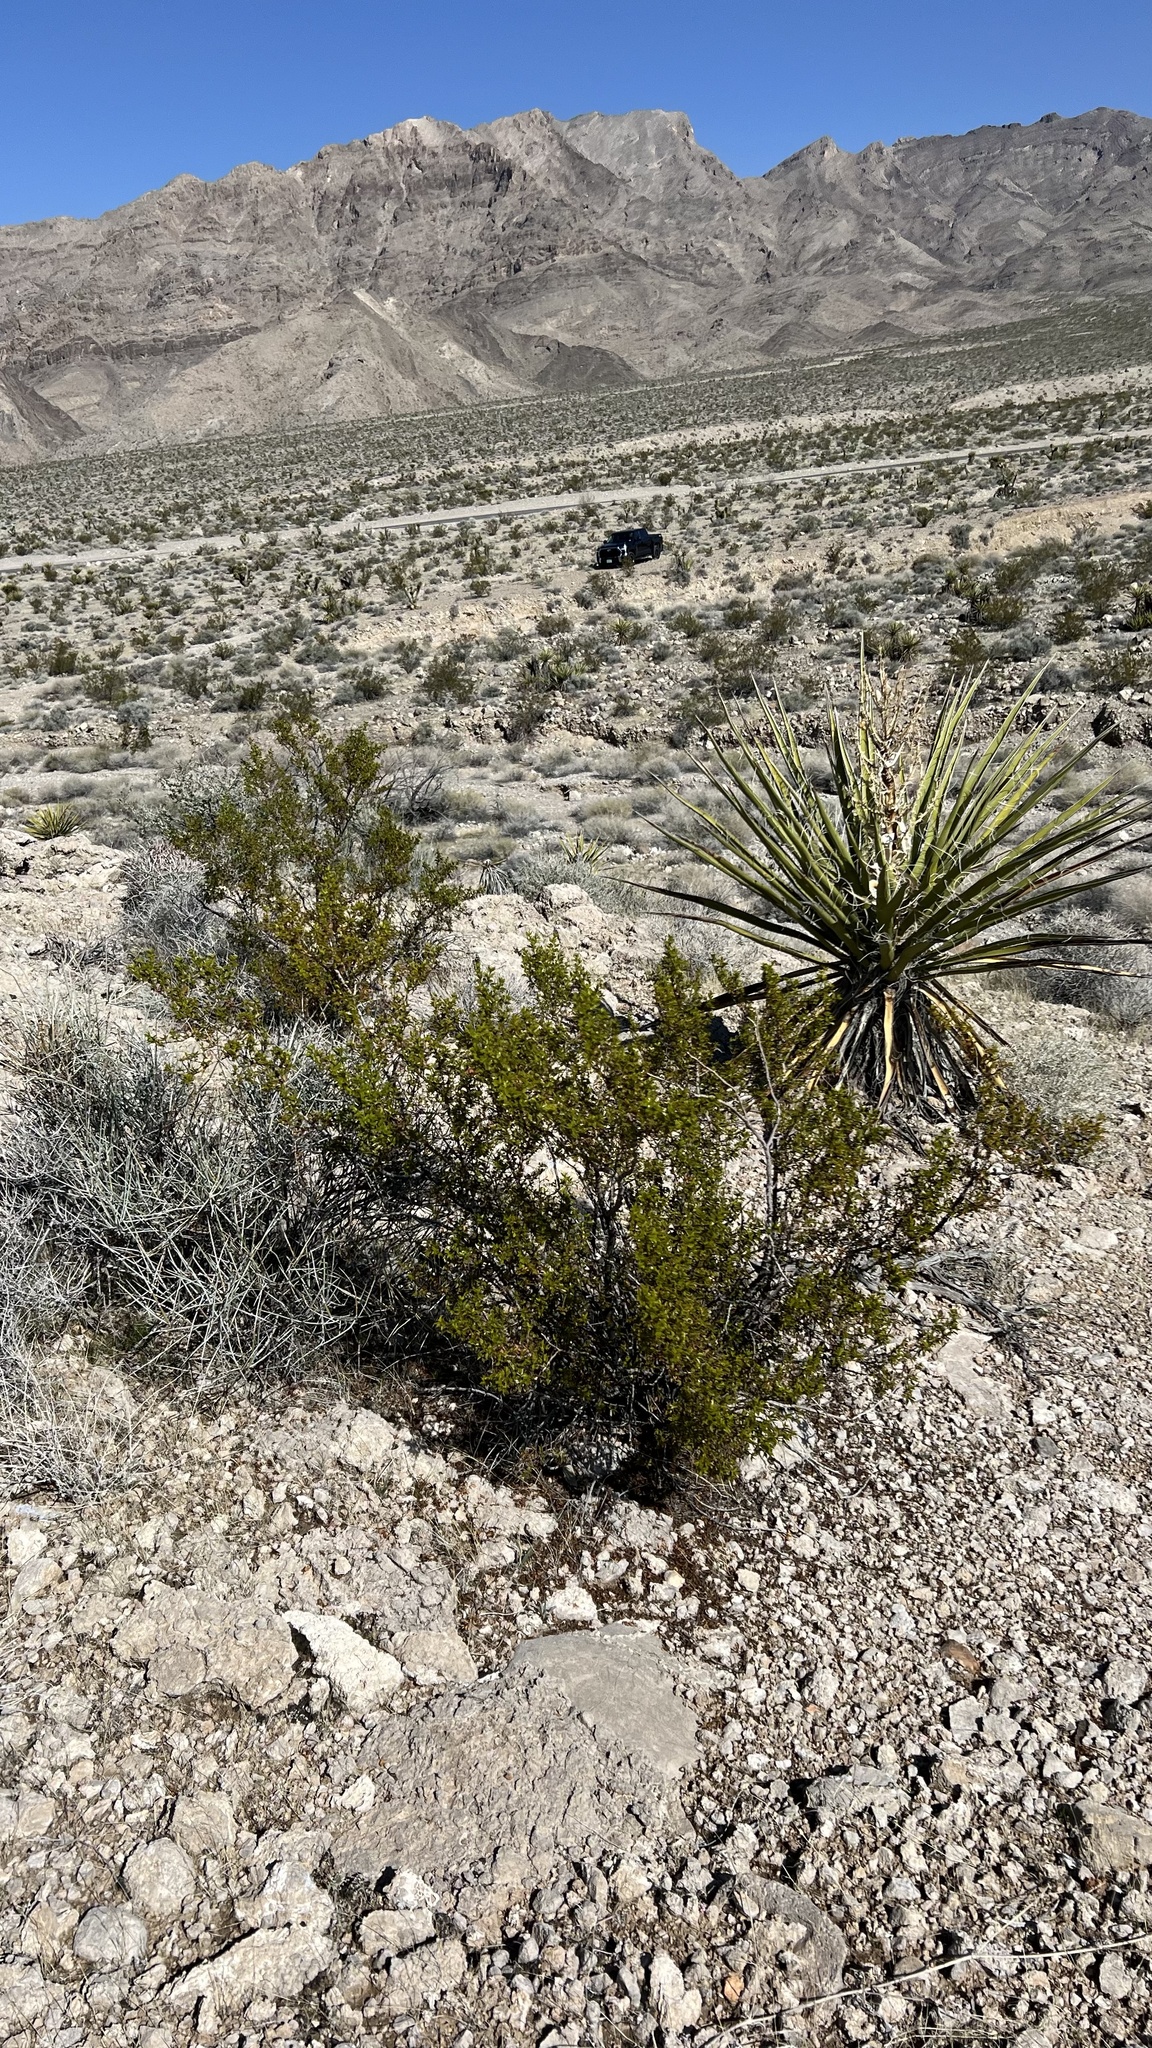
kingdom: Plantae
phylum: Tracheophyta
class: Magnoliopsida
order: Zygophyllales
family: Zygophyllaceae
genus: Larrea
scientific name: Larrea tridentata
